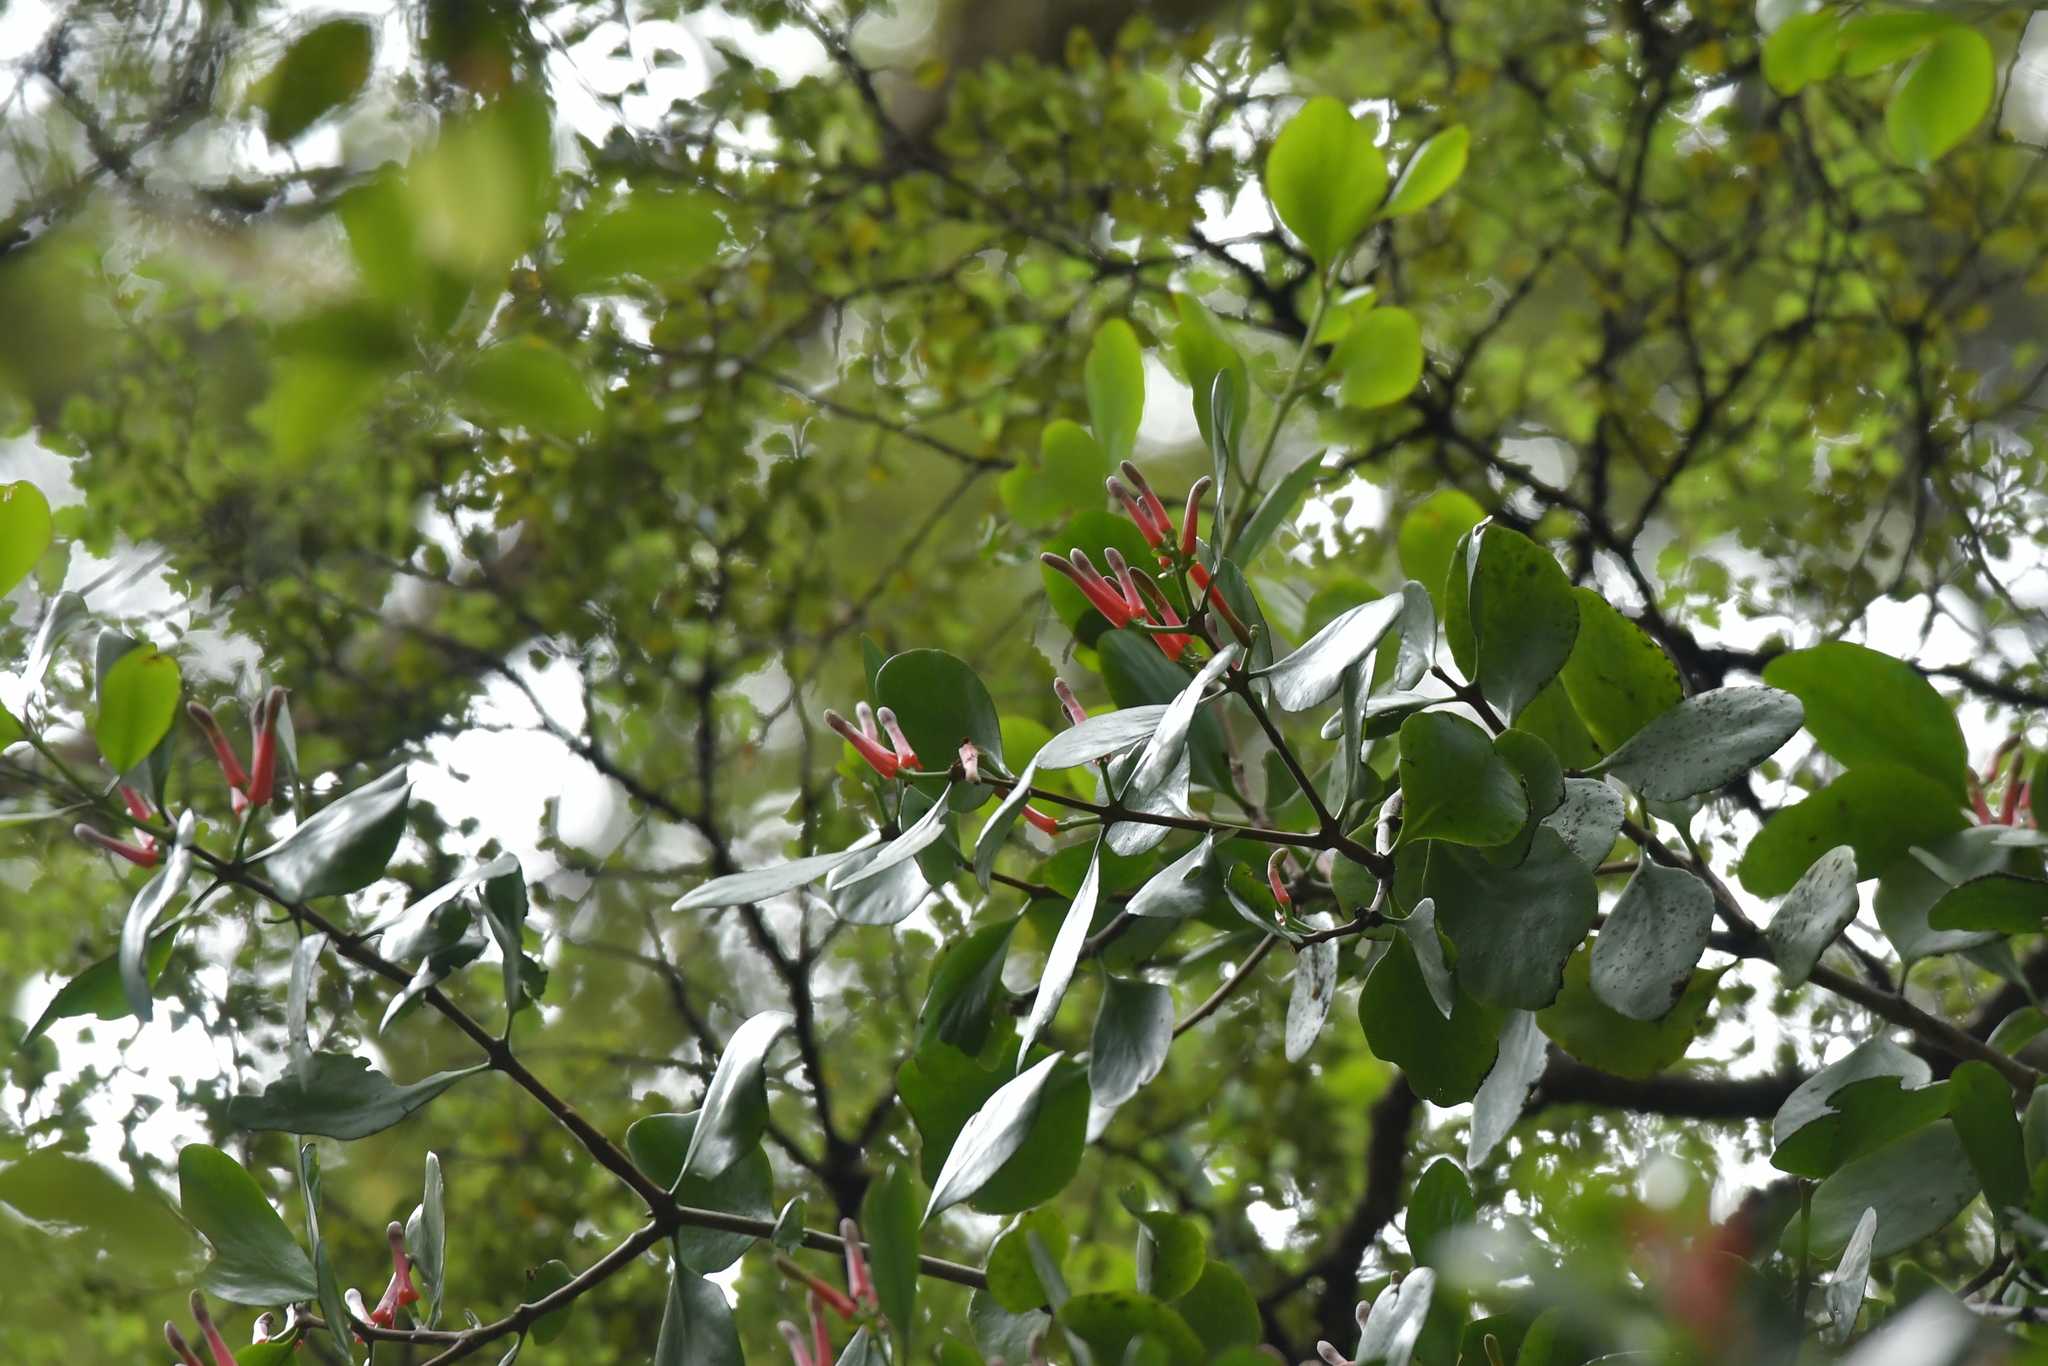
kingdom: Plantae
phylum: Tracheophyta
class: Magnoliopsida
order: Santalales
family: Loranthaceae
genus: Peraxilla
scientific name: Peraxilla colensoi
